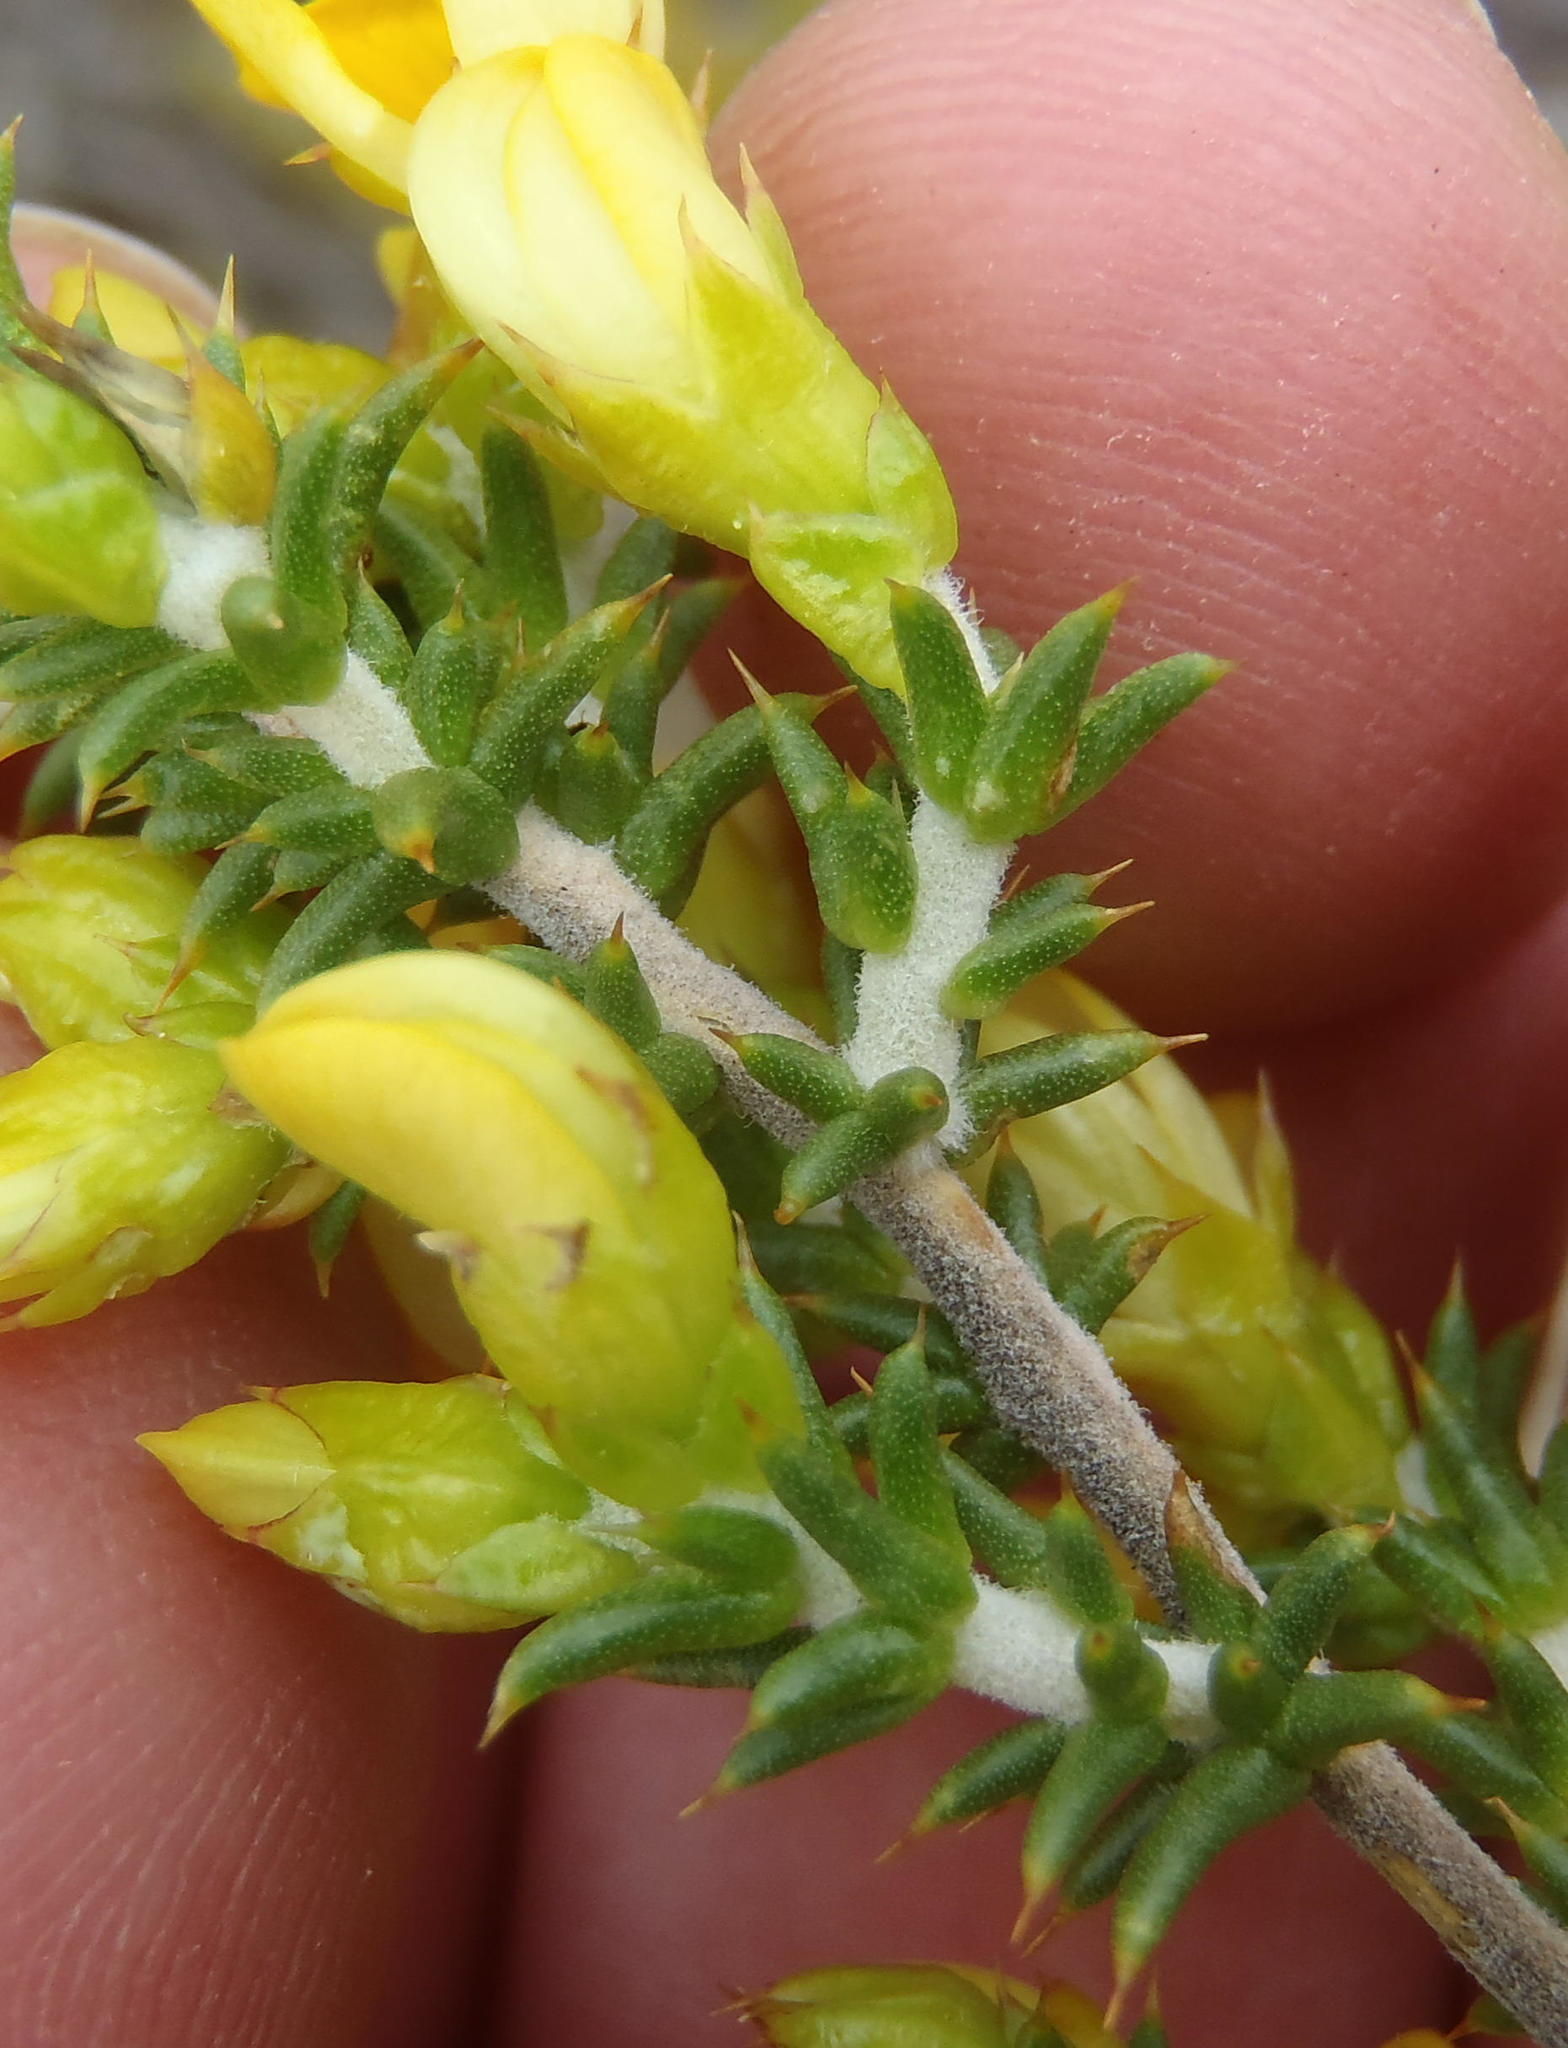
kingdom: Plantae
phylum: Tracheophyta
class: Magnoliopsida
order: Fabales
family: Fabaceae
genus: Aspalathus
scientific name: Aspalathus aciphylla
